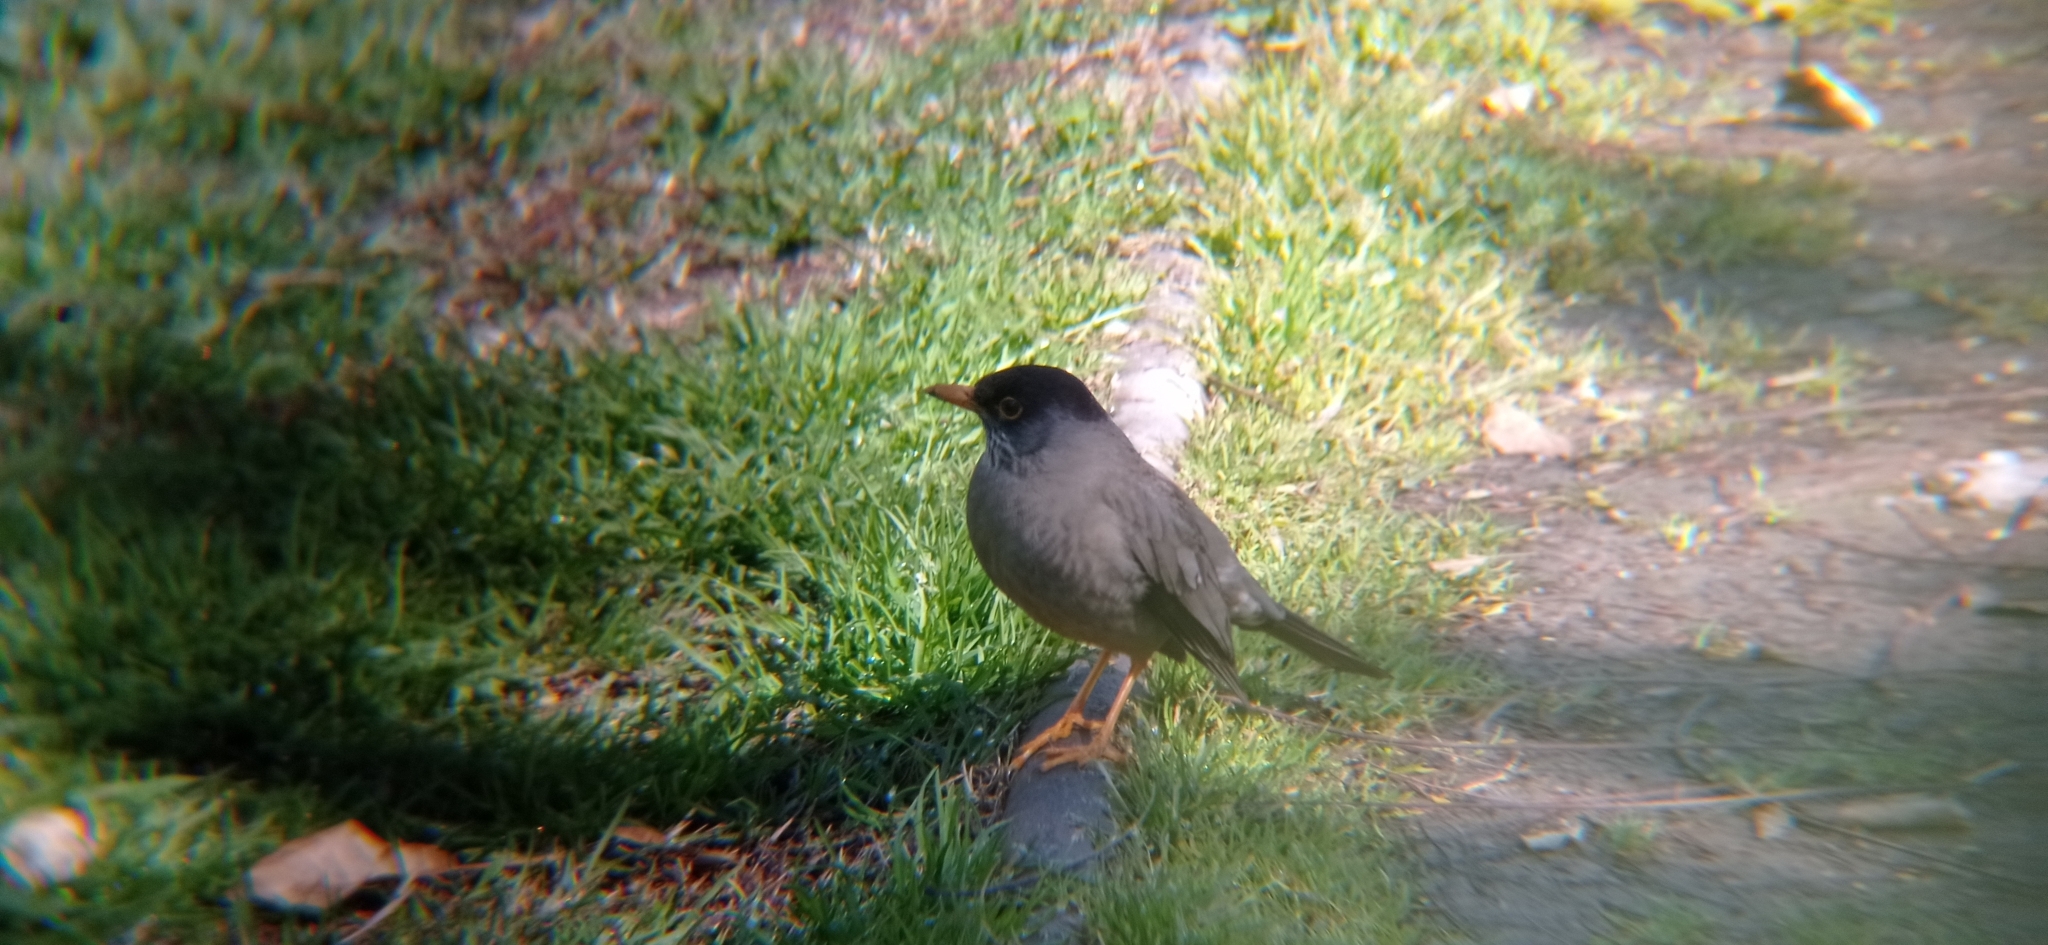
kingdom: Animalia
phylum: Chordata
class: Aves
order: Passeriformes
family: Turdidae
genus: Turdus
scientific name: Turdus falcklandii
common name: Austral thrush
